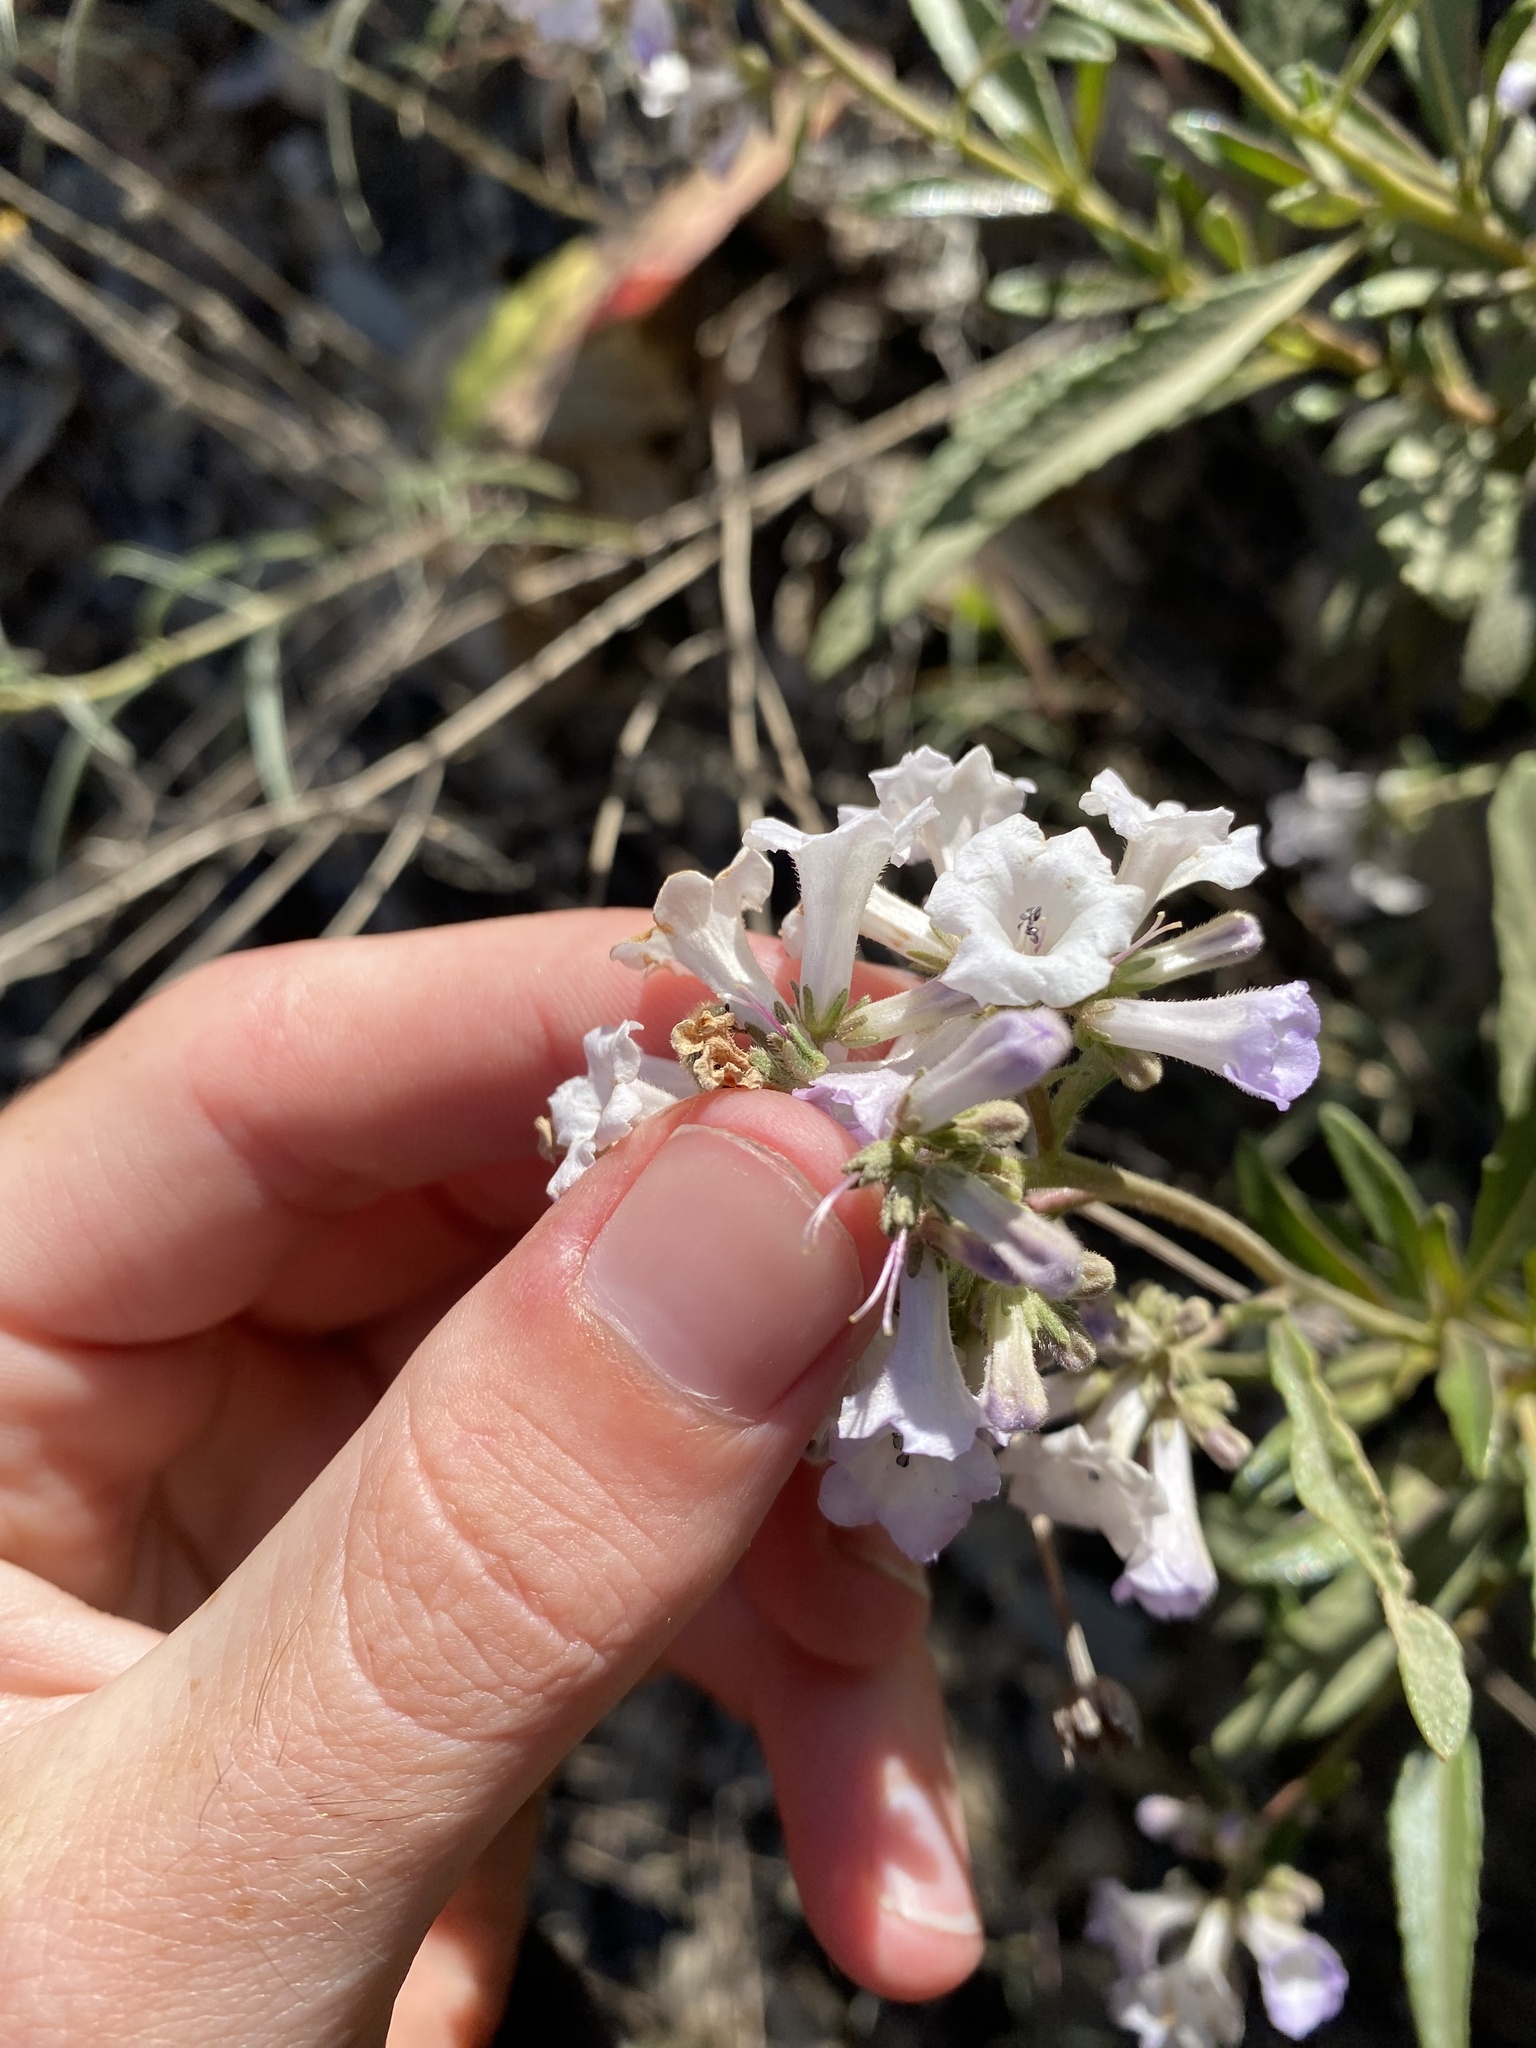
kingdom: Plantae
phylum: Tracheophyta
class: Magnoliopsida
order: Boraginales
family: Namaceae
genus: Eriodictyon
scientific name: Eriodictyon californicum
